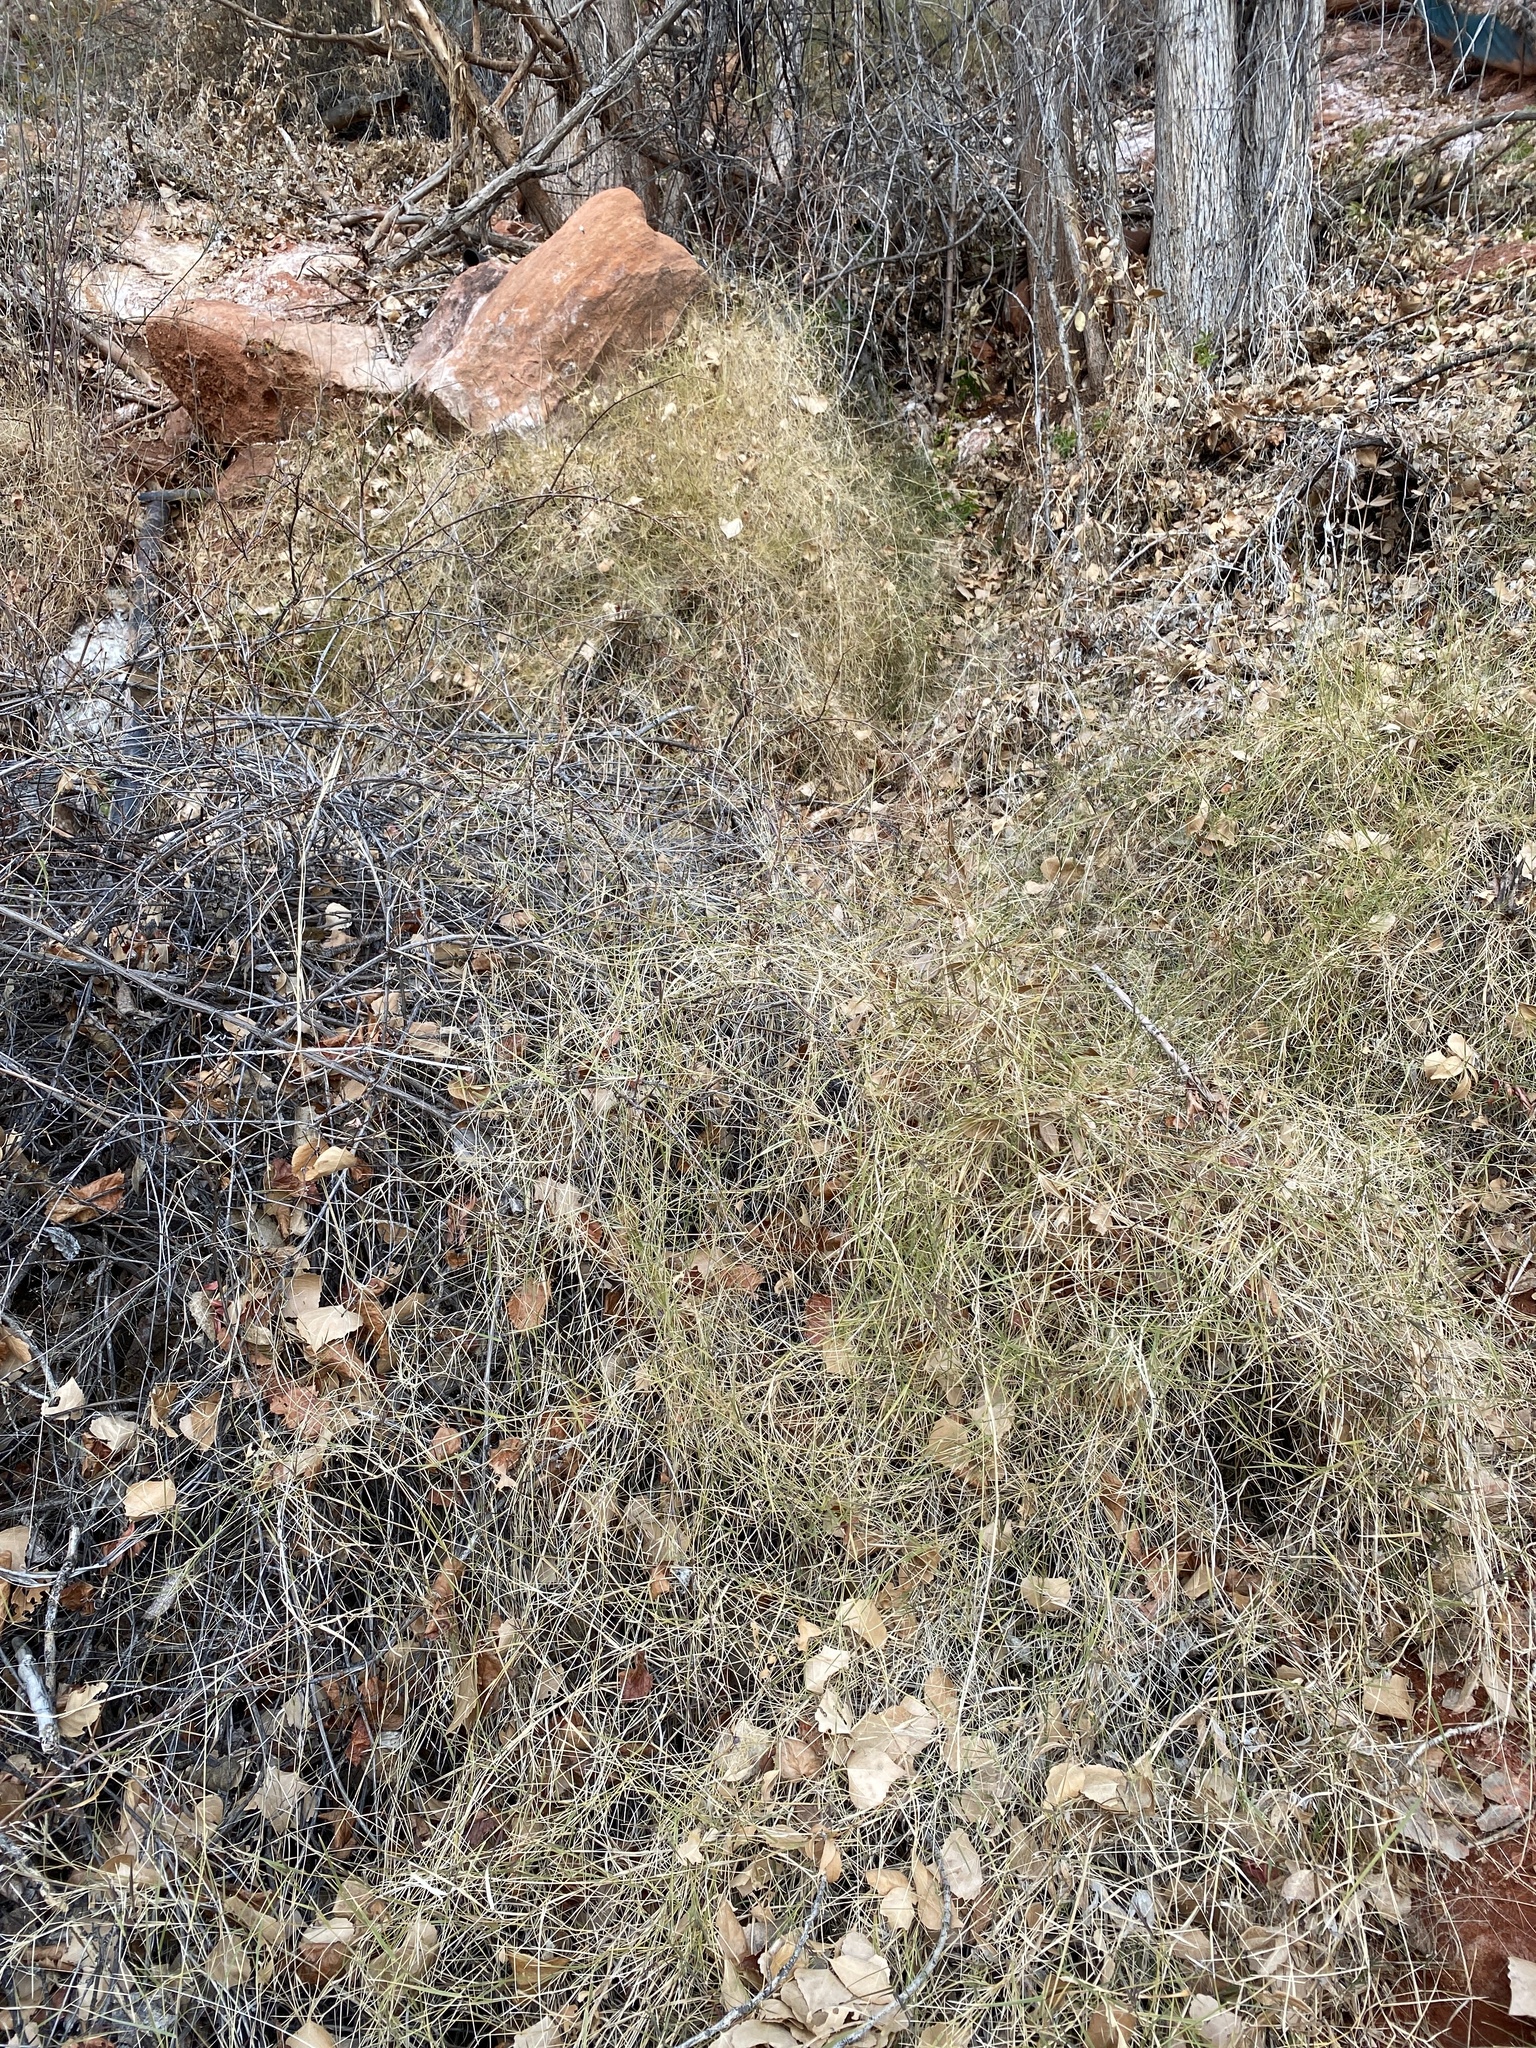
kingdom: Plantae
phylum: Tracheophyta
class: Liliopsida
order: Poales
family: Poaceae
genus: Muhlenbergia
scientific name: Muhlenbergia porteri
